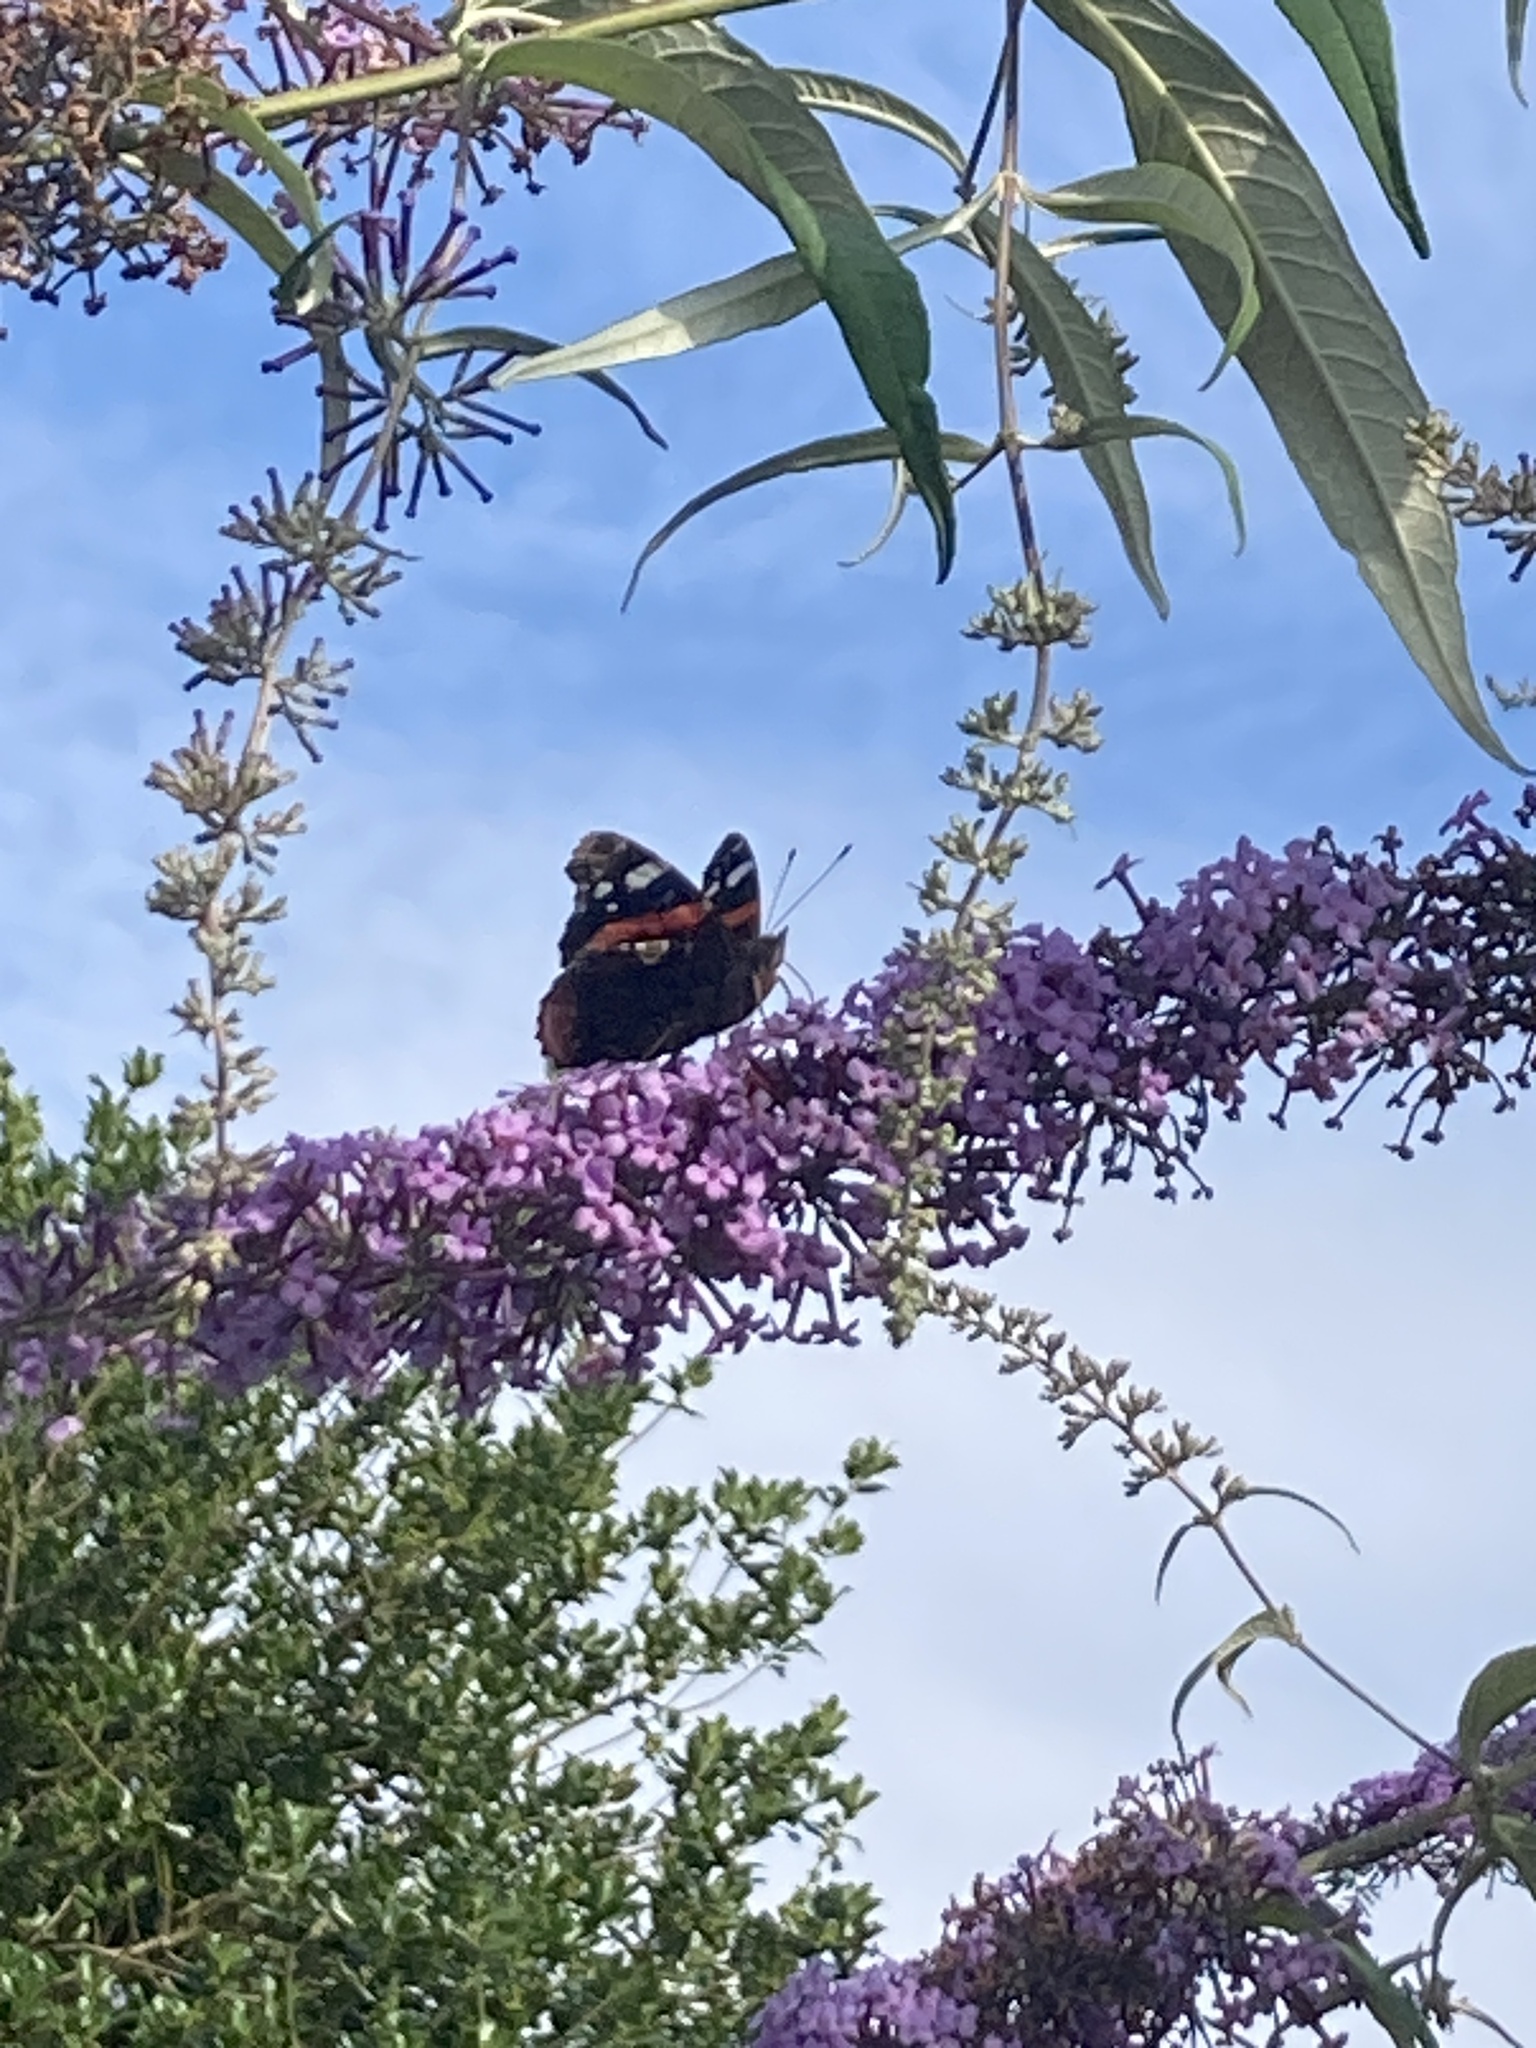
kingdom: Animalia
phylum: Arthropoda
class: Insecta
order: Lepidoptera
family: Nymphalidae
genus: Vanessa
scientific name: Vanessa atalanta
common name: Red admiral
